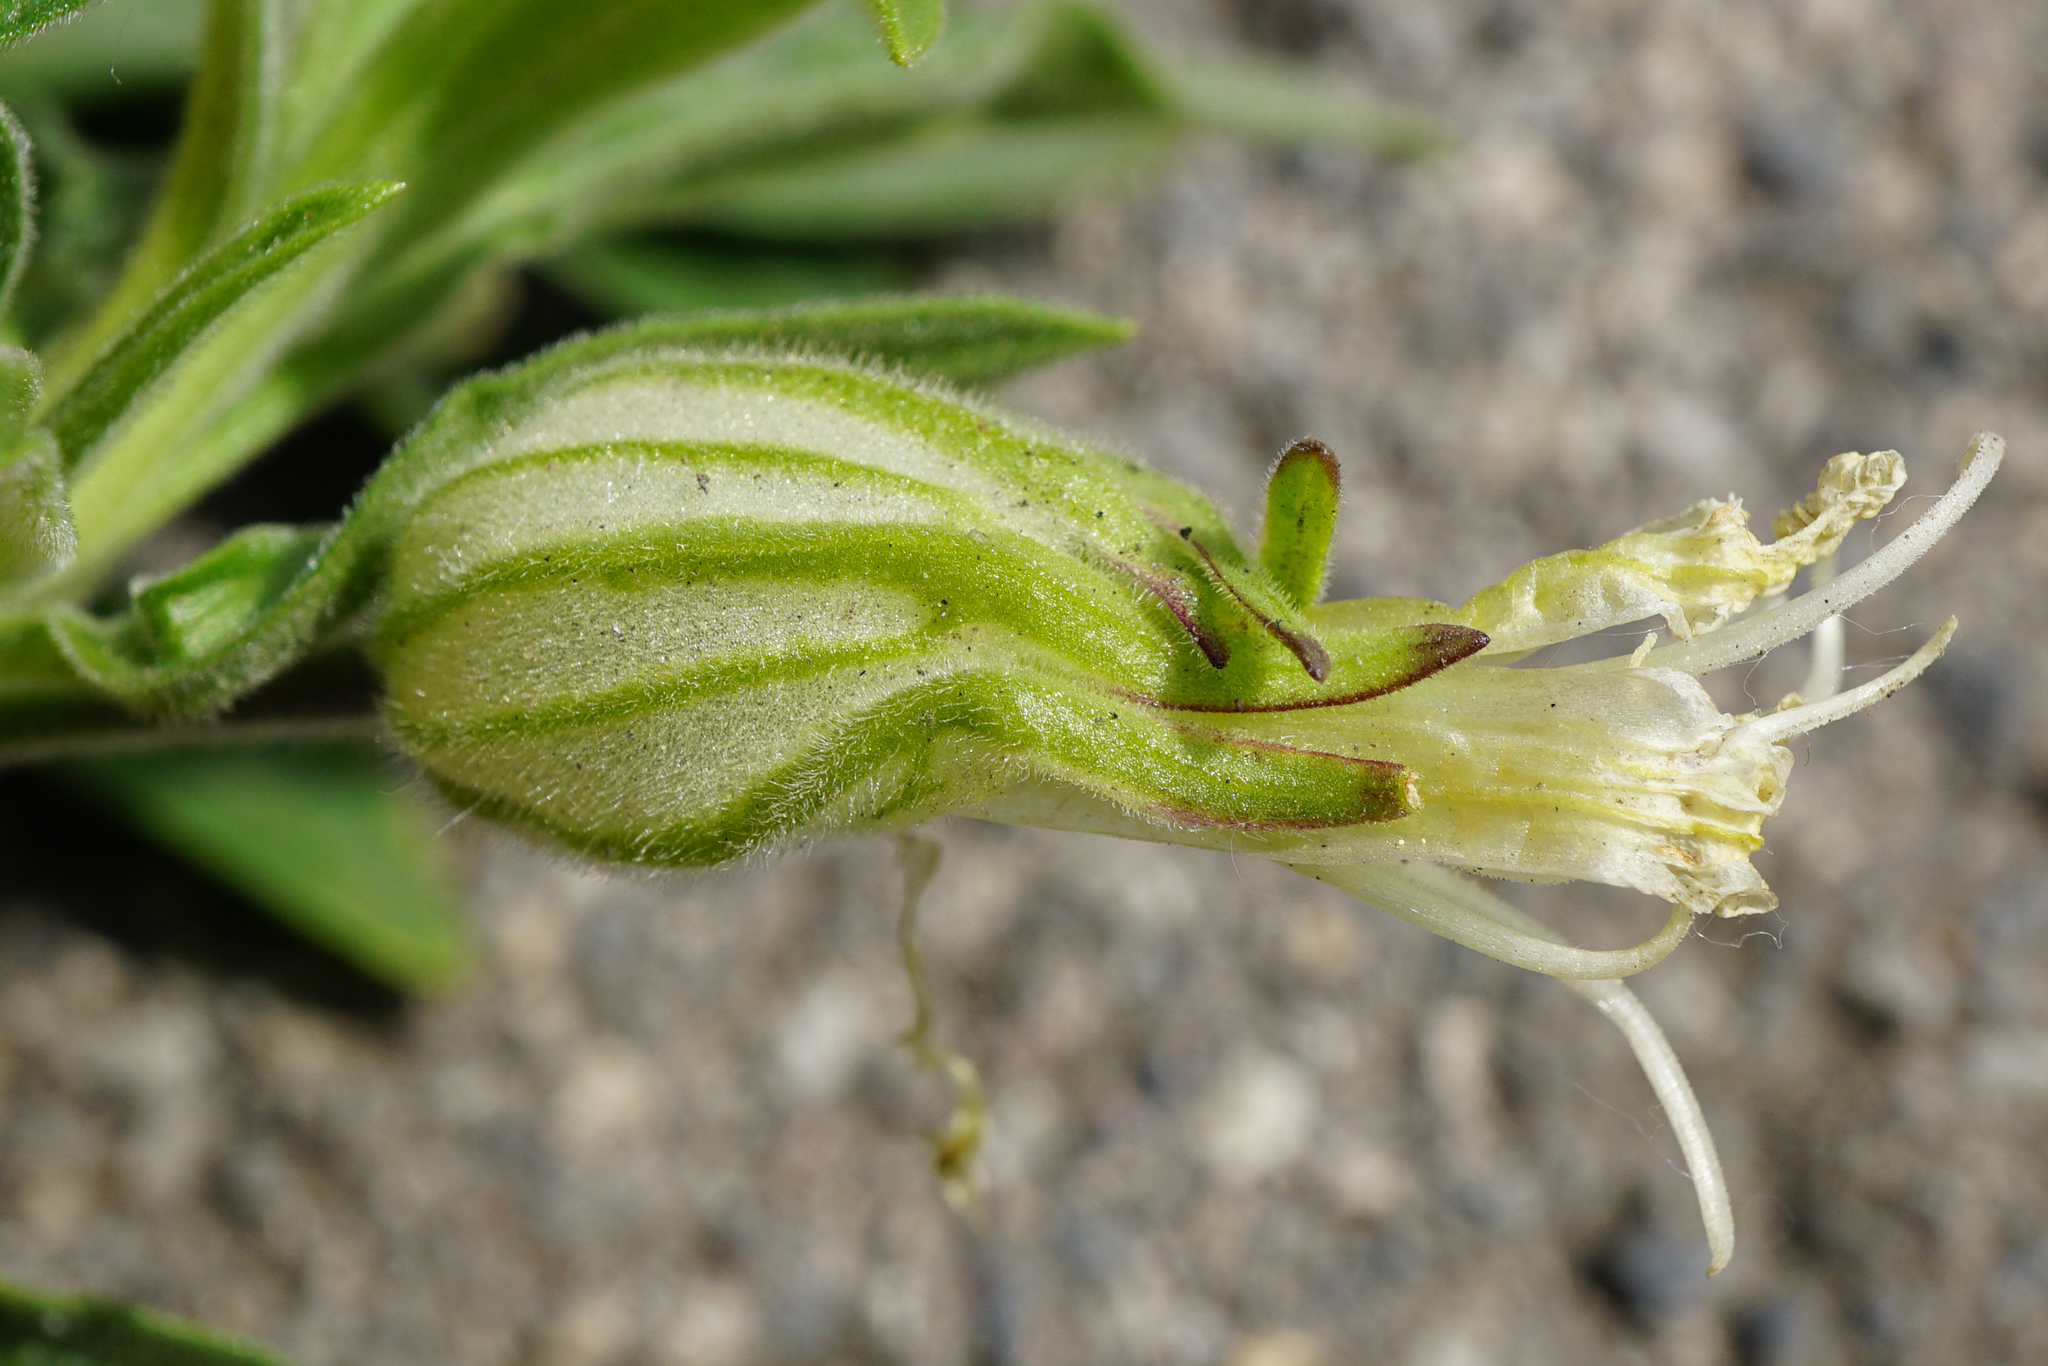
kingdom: Plantae
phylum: Tracheophyta
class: Magnoliopsida
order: Caryophyllales
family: Caryophyllaceae
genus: Silene
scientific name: Silene latifolia
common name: White campion
